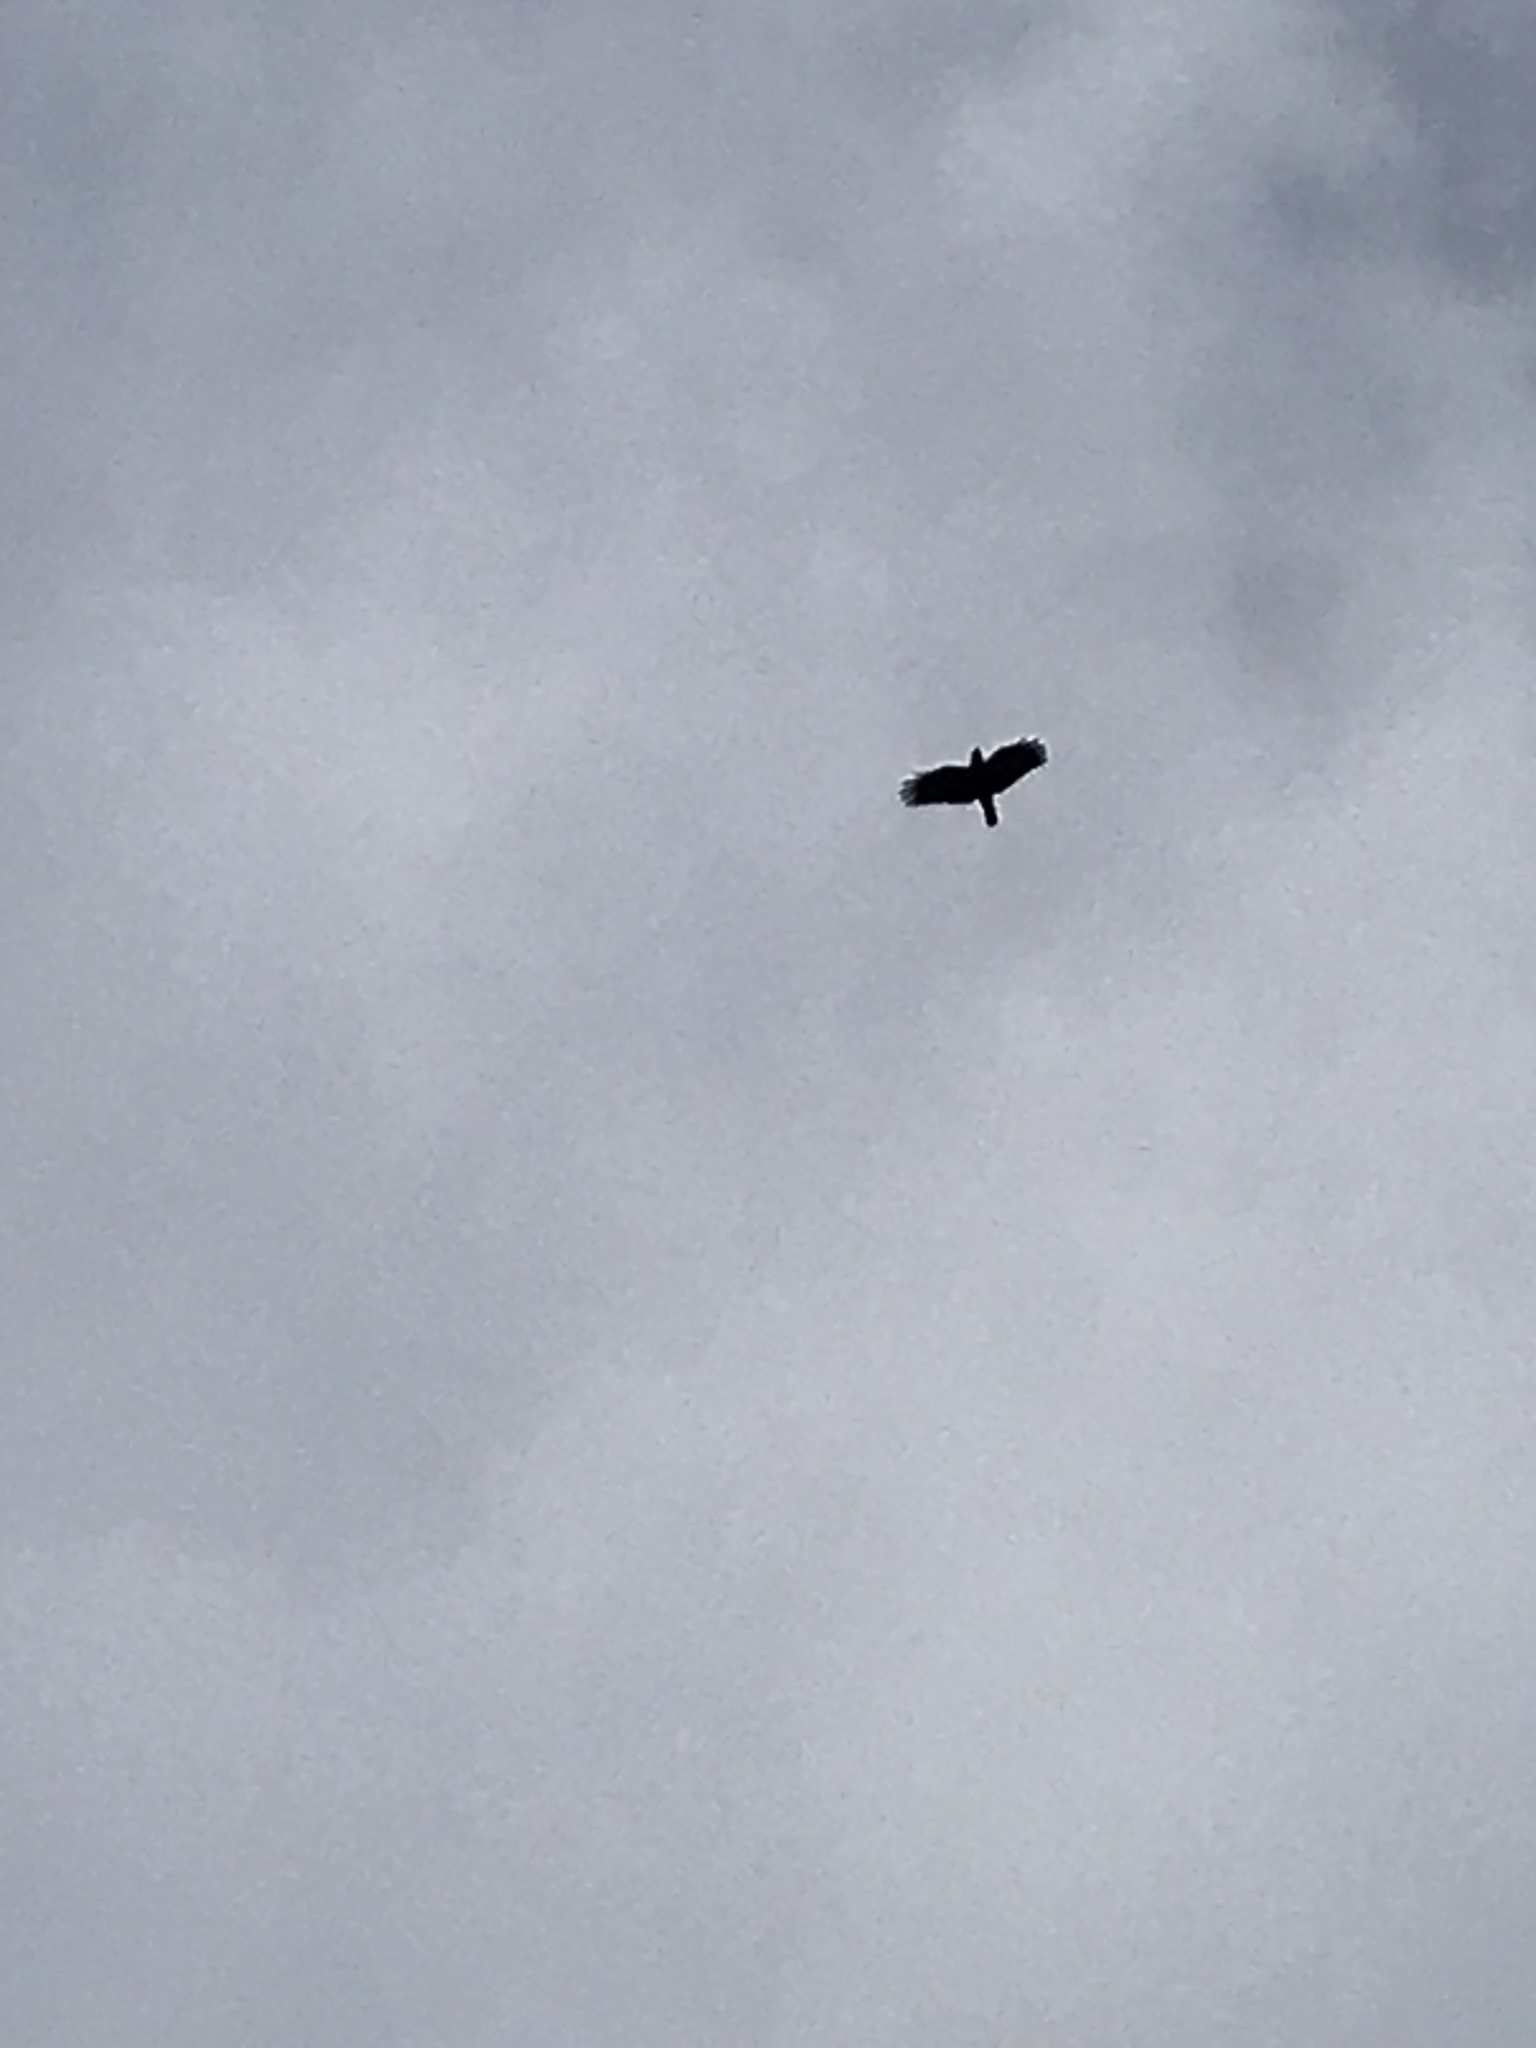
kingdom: Animalia
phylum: Chordata
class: Aves
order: Passeriformes
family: Corvidae
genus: Corvus
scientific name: Corvus brachyrhynchos
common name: American crow
